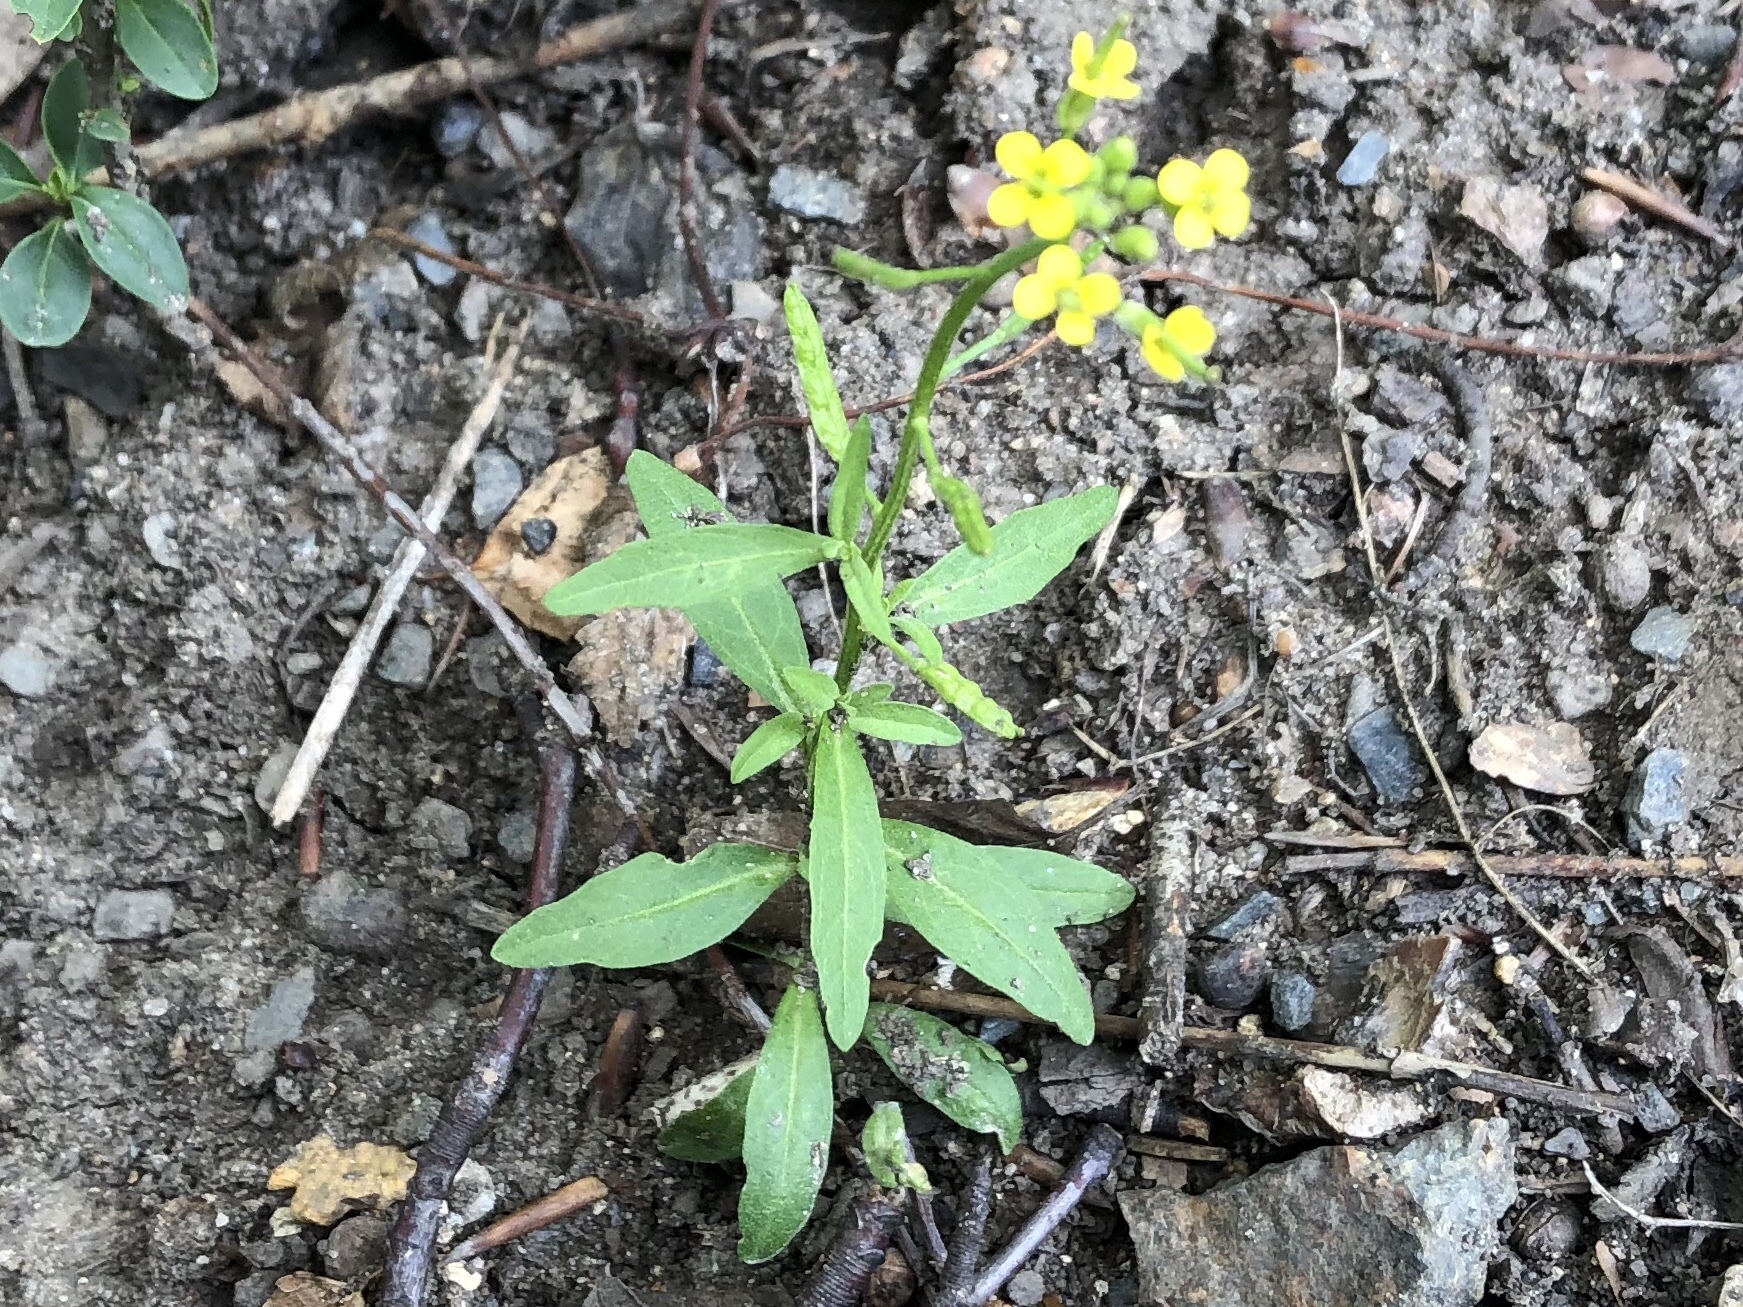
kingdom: Plantae
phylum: Tracheophyta
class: Magnoliopsida
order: Brassicales
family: Brassicaceae
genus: Erysimum
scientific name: Erysimum cheiranthoides
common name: Treacle mustard
